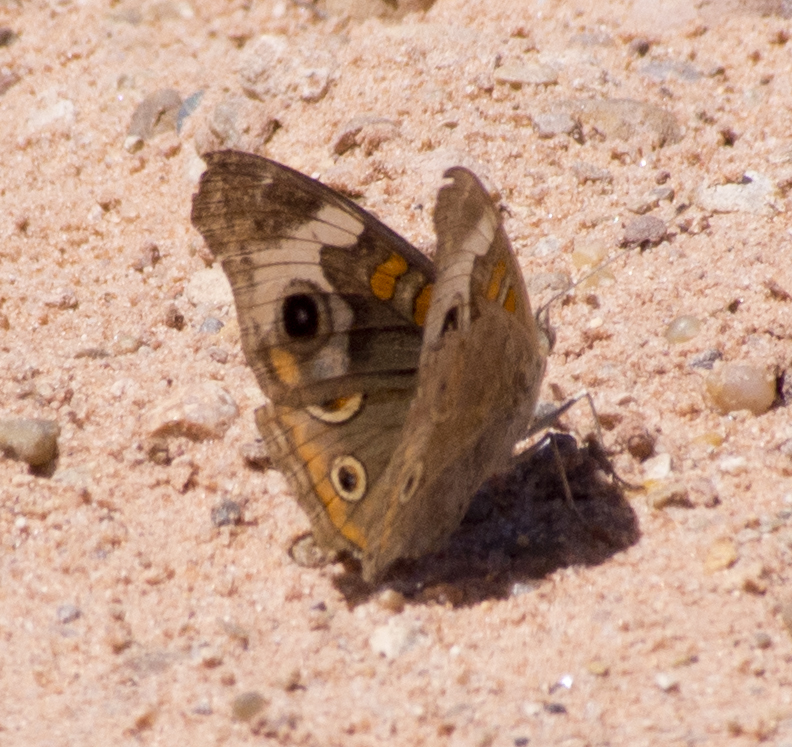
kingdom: Animalia
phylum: Arthropoda
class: Insecta
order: Lepidoptera
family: Nymphalidae
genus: Junonia
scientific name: Junonia grisea
